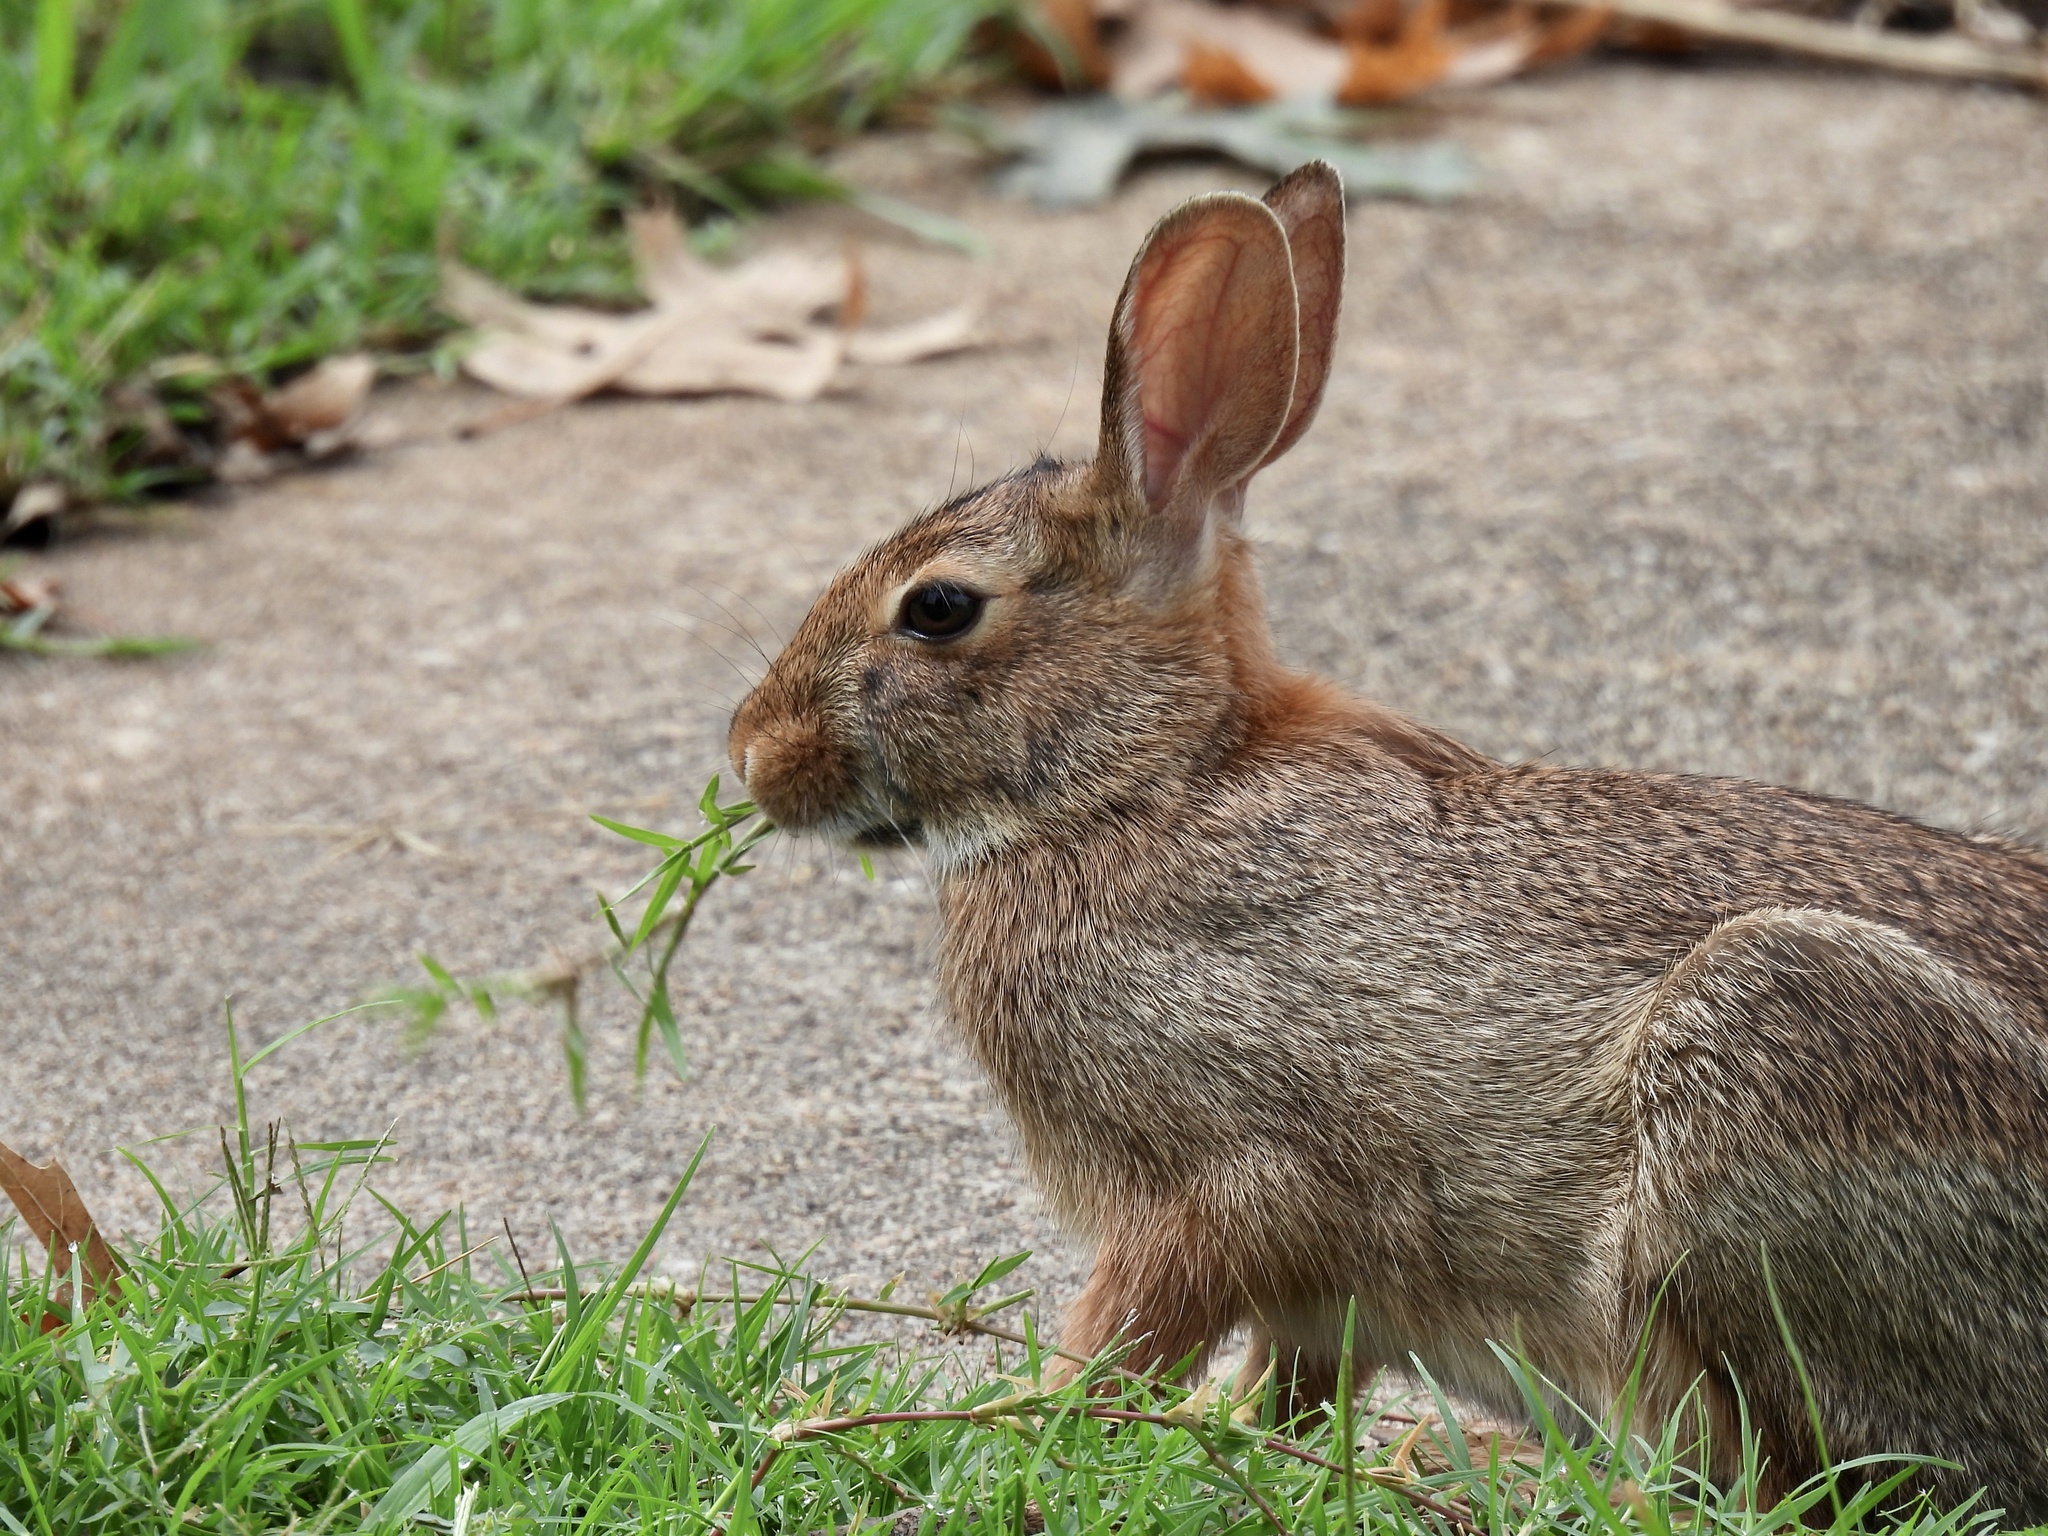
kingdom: Animalia
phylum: Chordata
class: Mammalia
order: Lagomorpha
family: Leporidae
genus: Sylvilagus
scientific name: Sylvilagus floridanus
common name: Eastern cottontail
